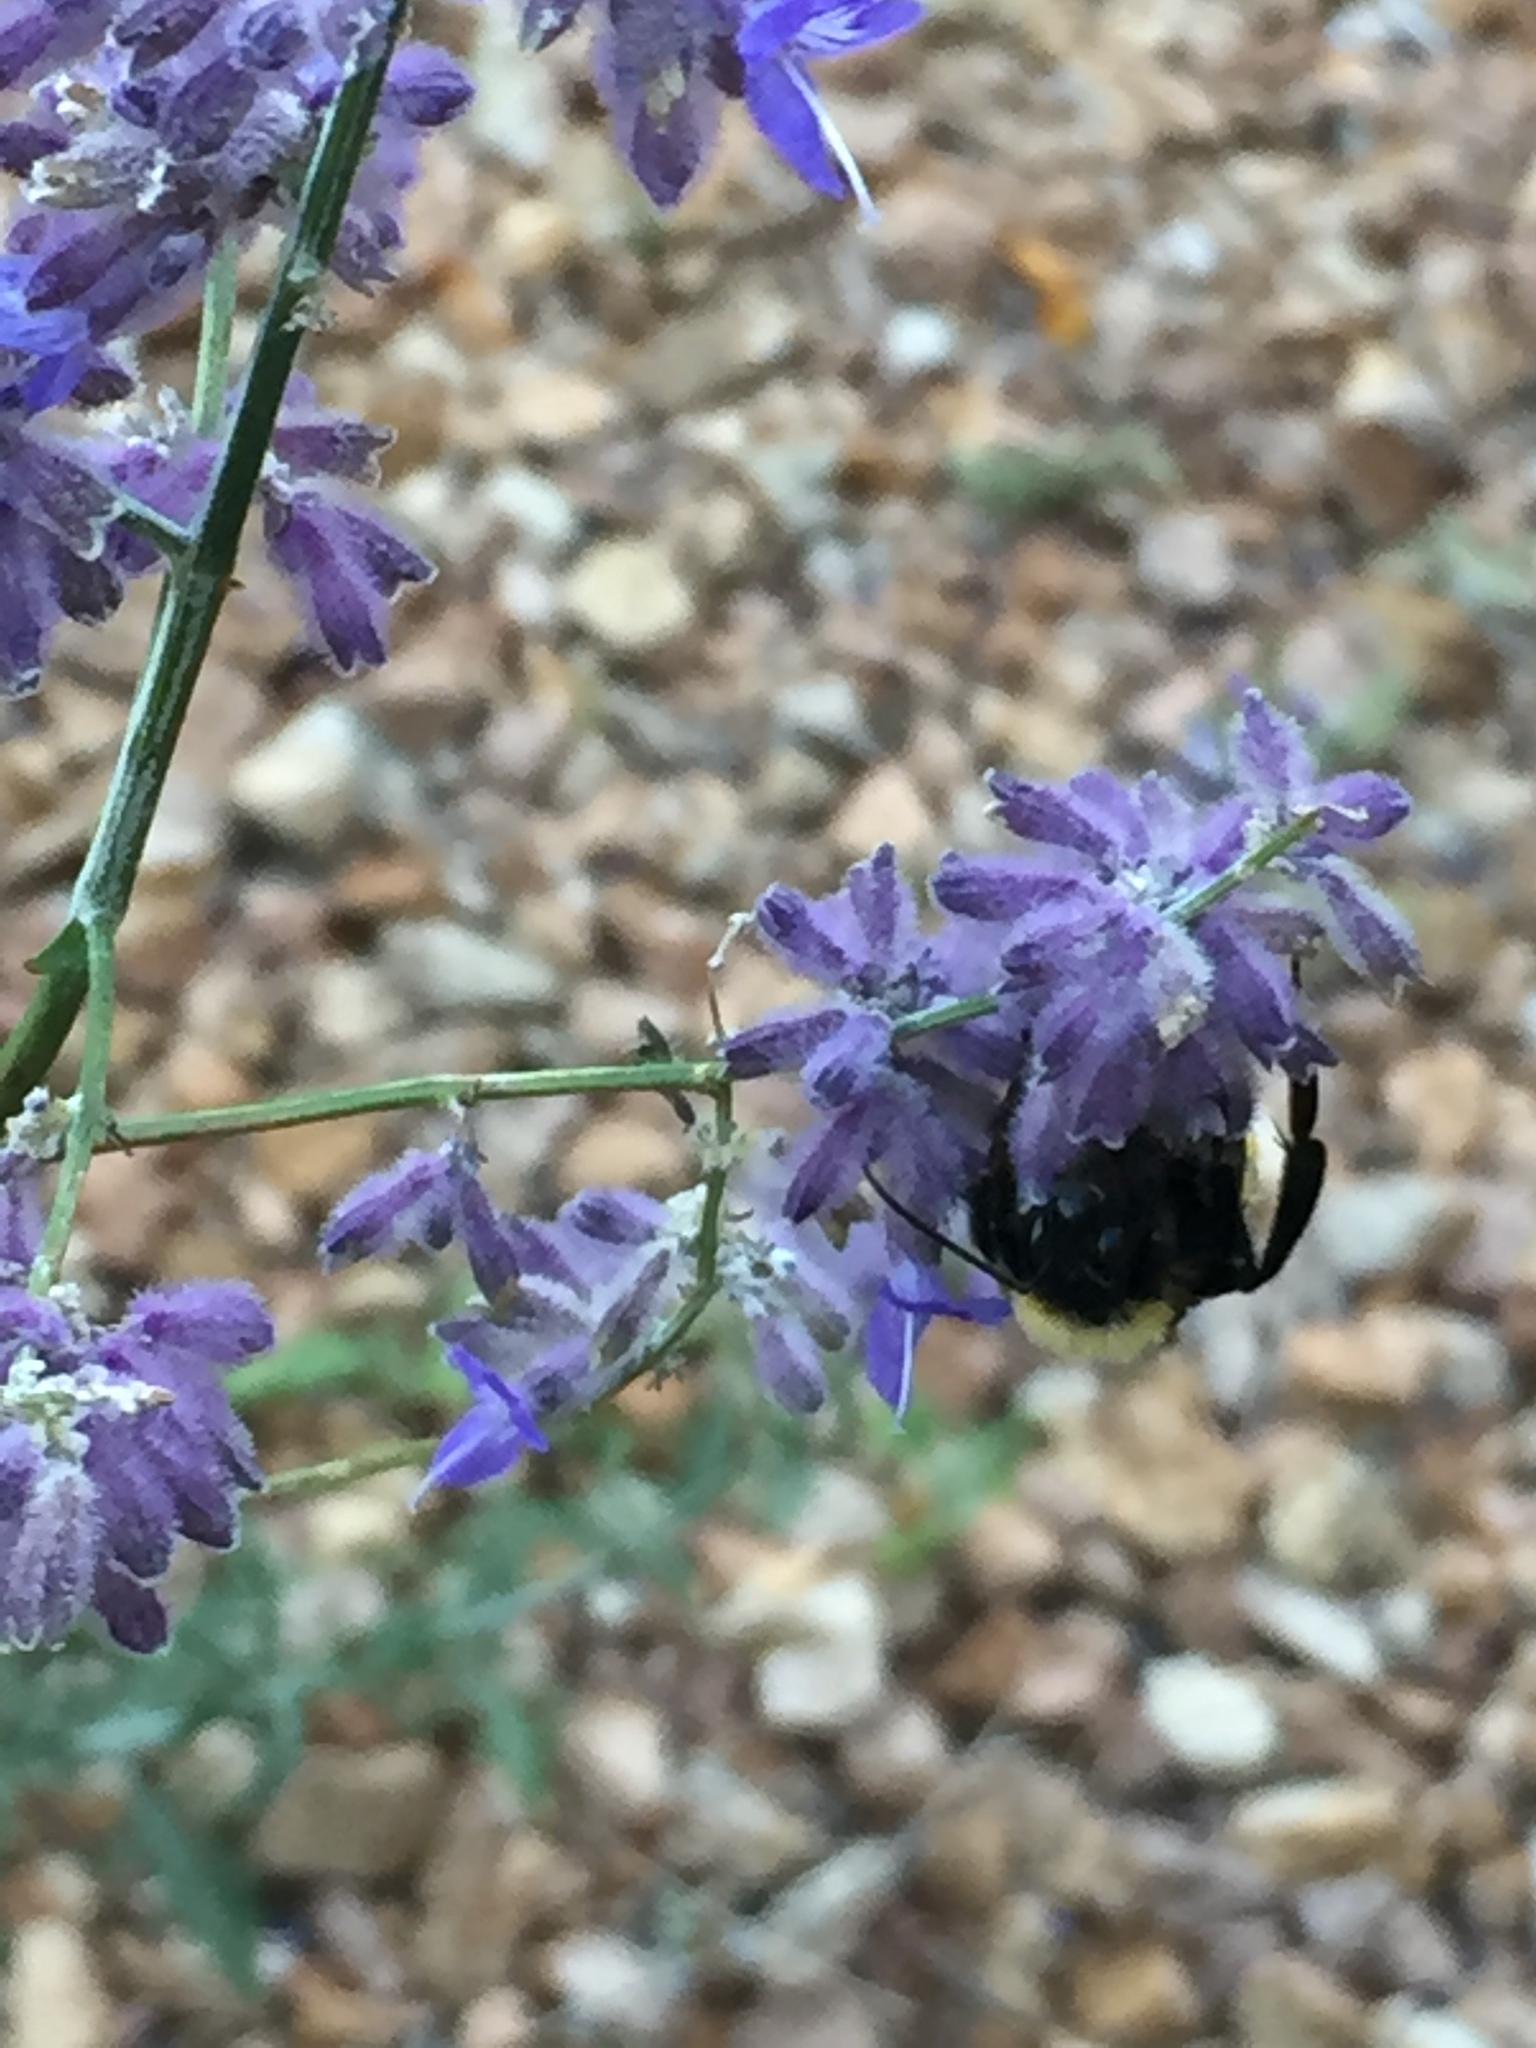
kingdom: Animalia
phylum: Arthropoda
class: Insecta
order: Hymenoptera
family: Apidae
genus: Bombus
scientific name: Bombus sonorus
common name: Sonoran bumble bee
